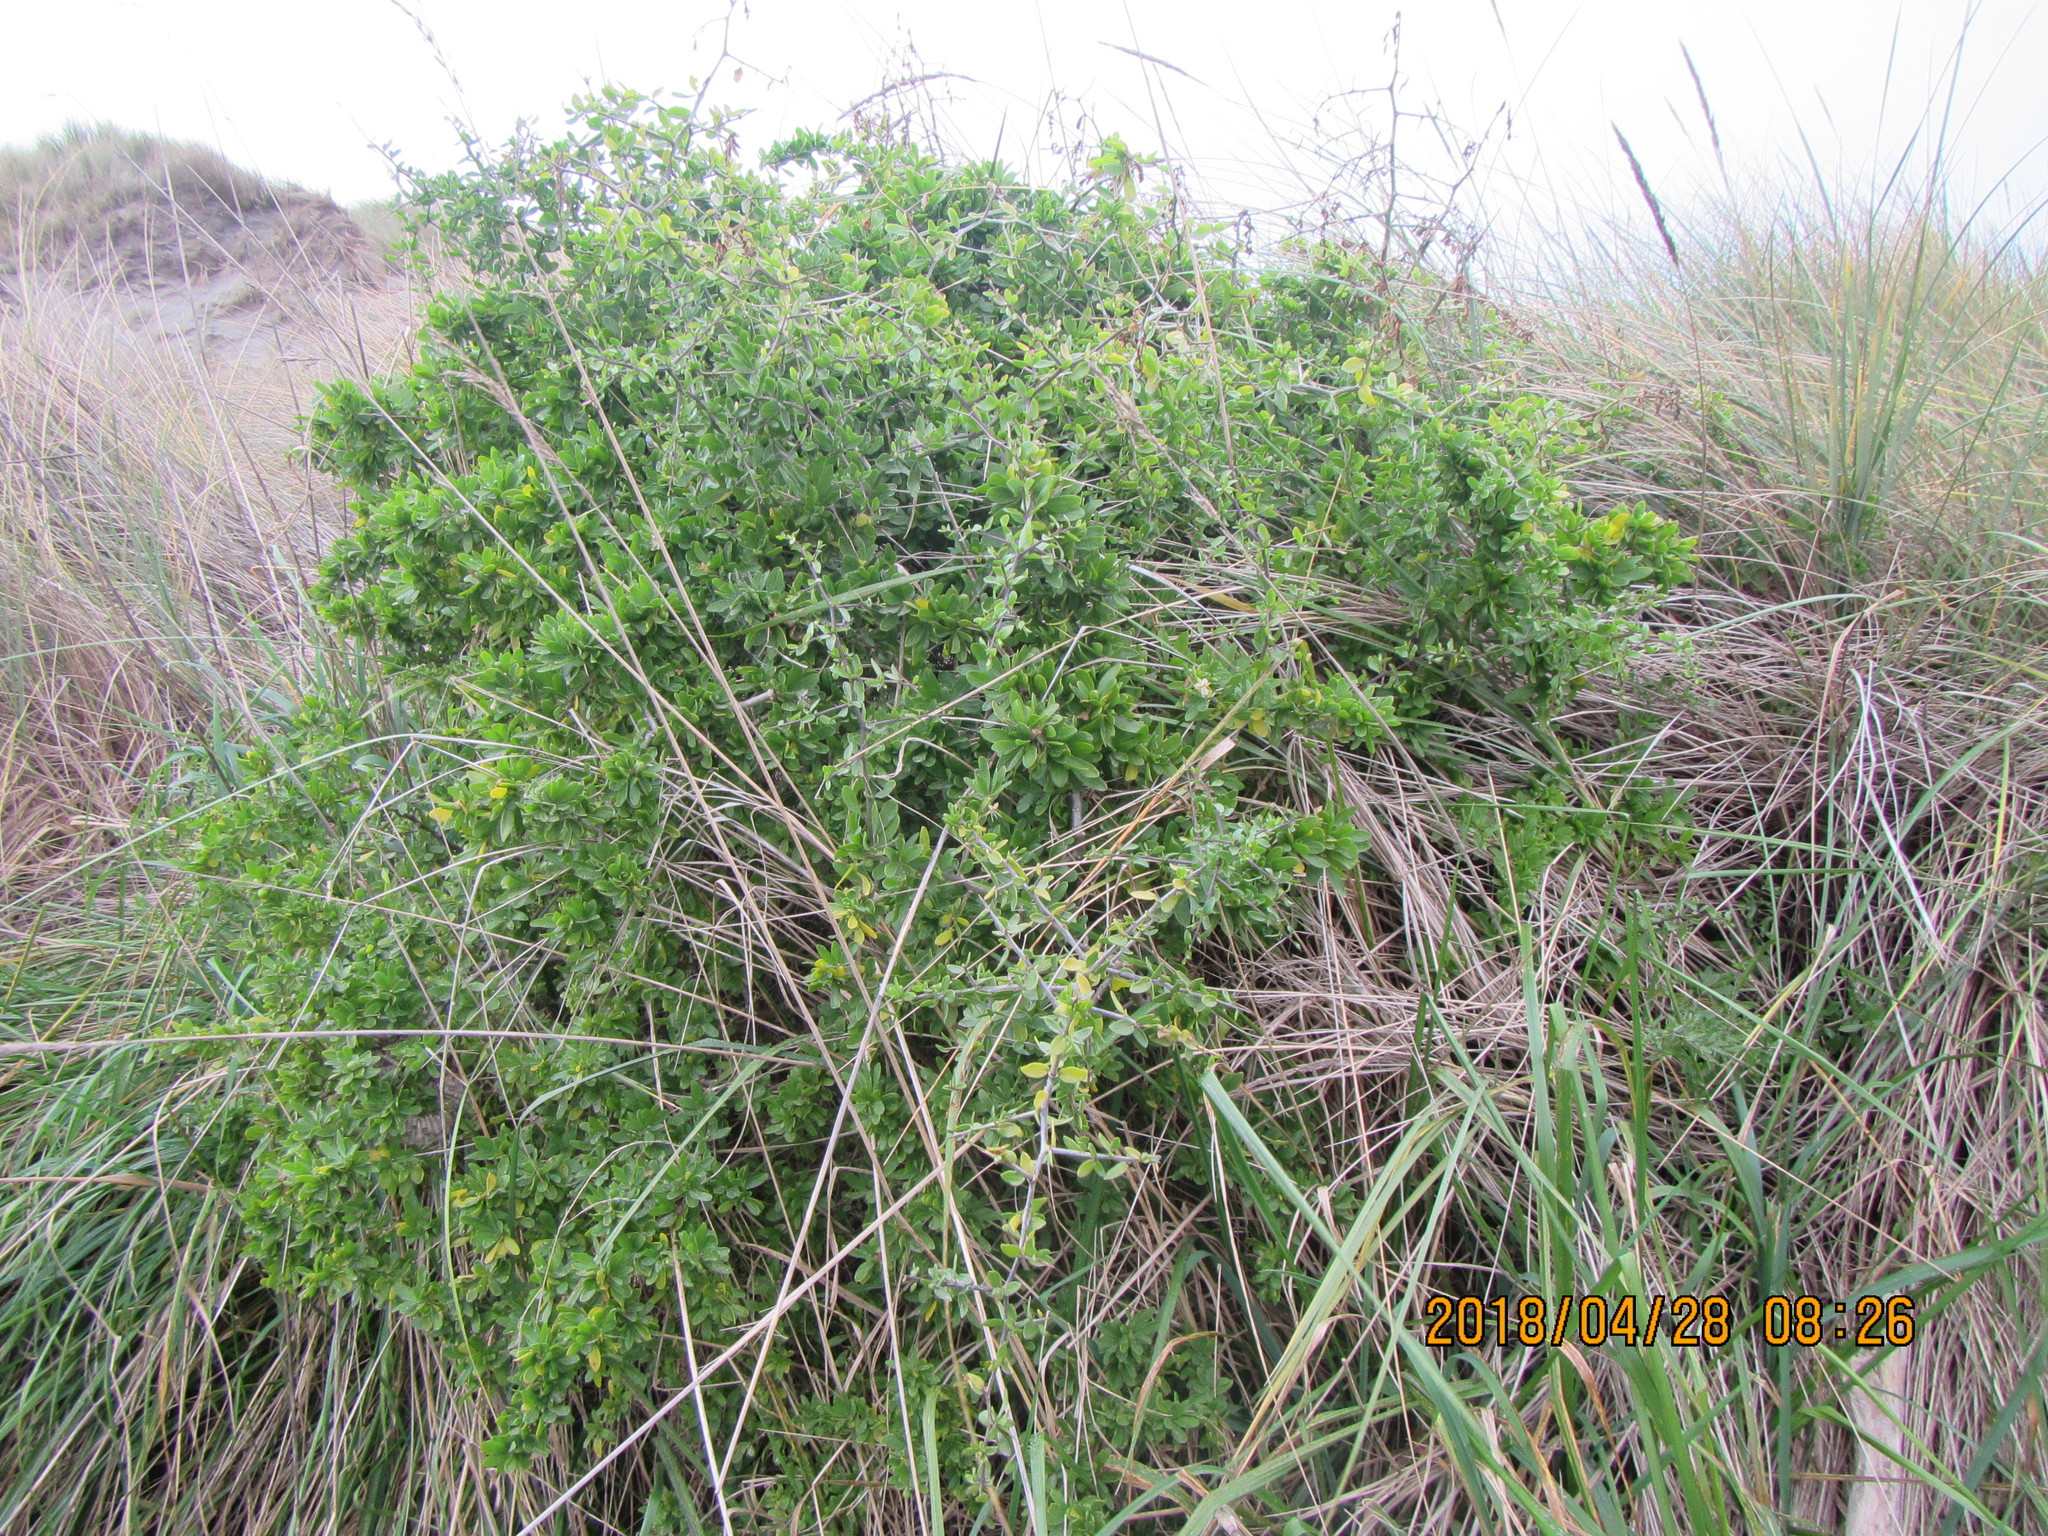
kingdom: Plantae
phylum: Tracheophyta
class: Magnoliopsida
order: Solanales
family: Solanaceae
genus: Lycium
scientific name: Lycium ferocissimum
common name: African boxthorn
